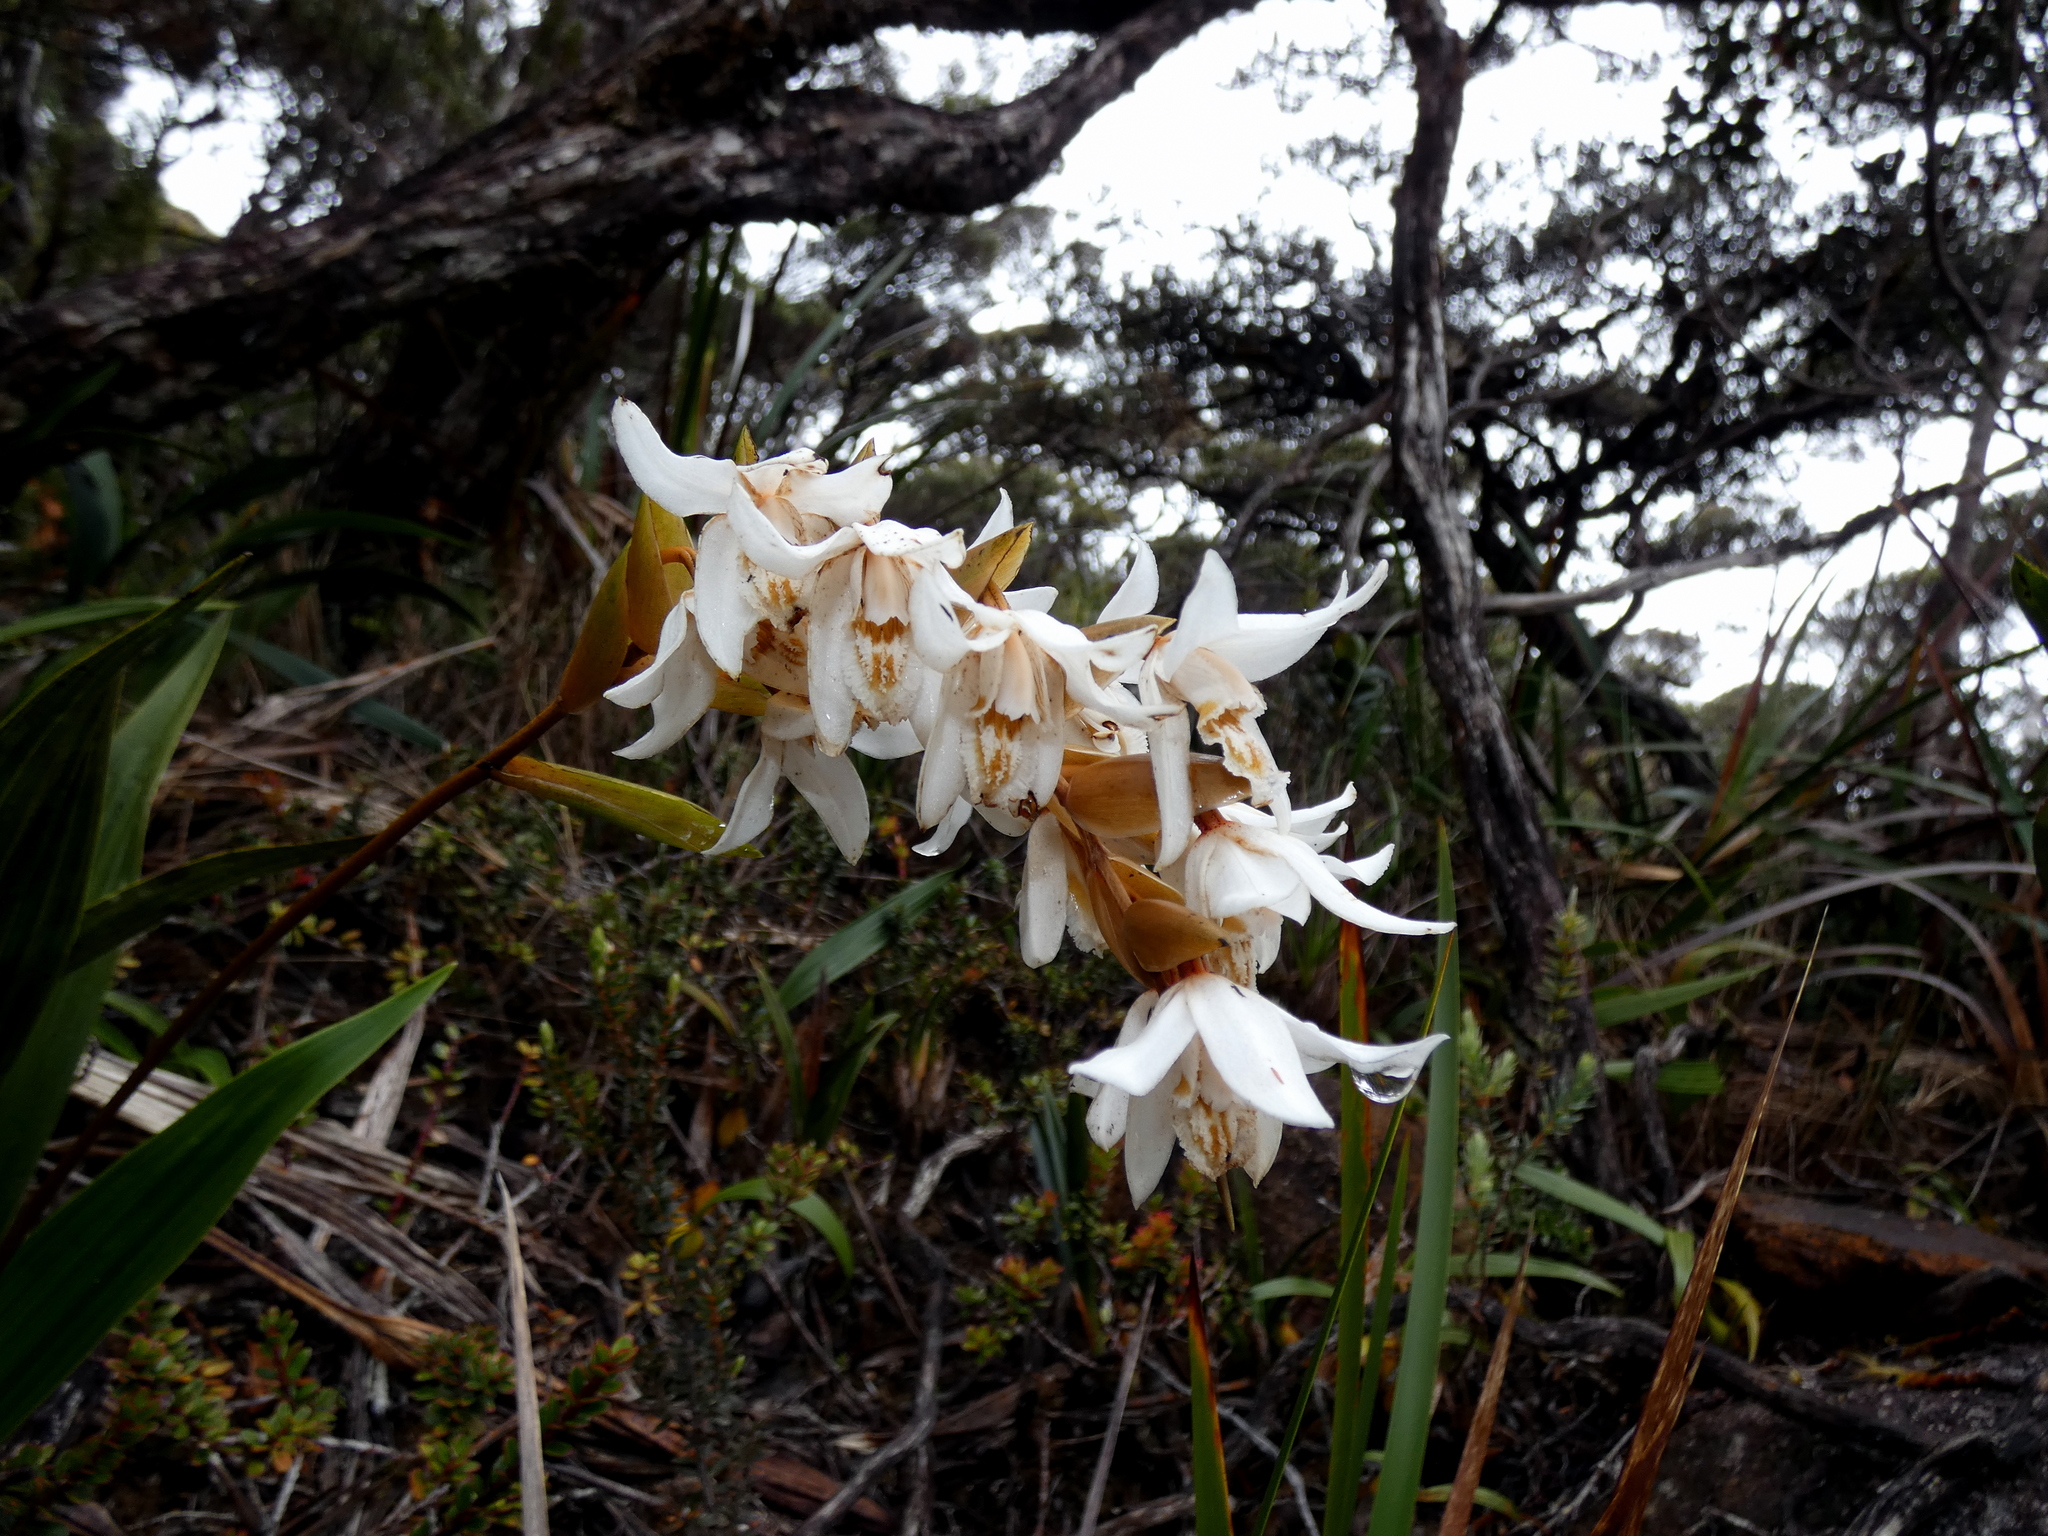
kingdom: Plantae
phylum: Tracheophyta
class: Liliopsida
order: Asparagales
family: Orchidaceae
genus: Coelogyne
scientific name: Coelogyne papillosa
